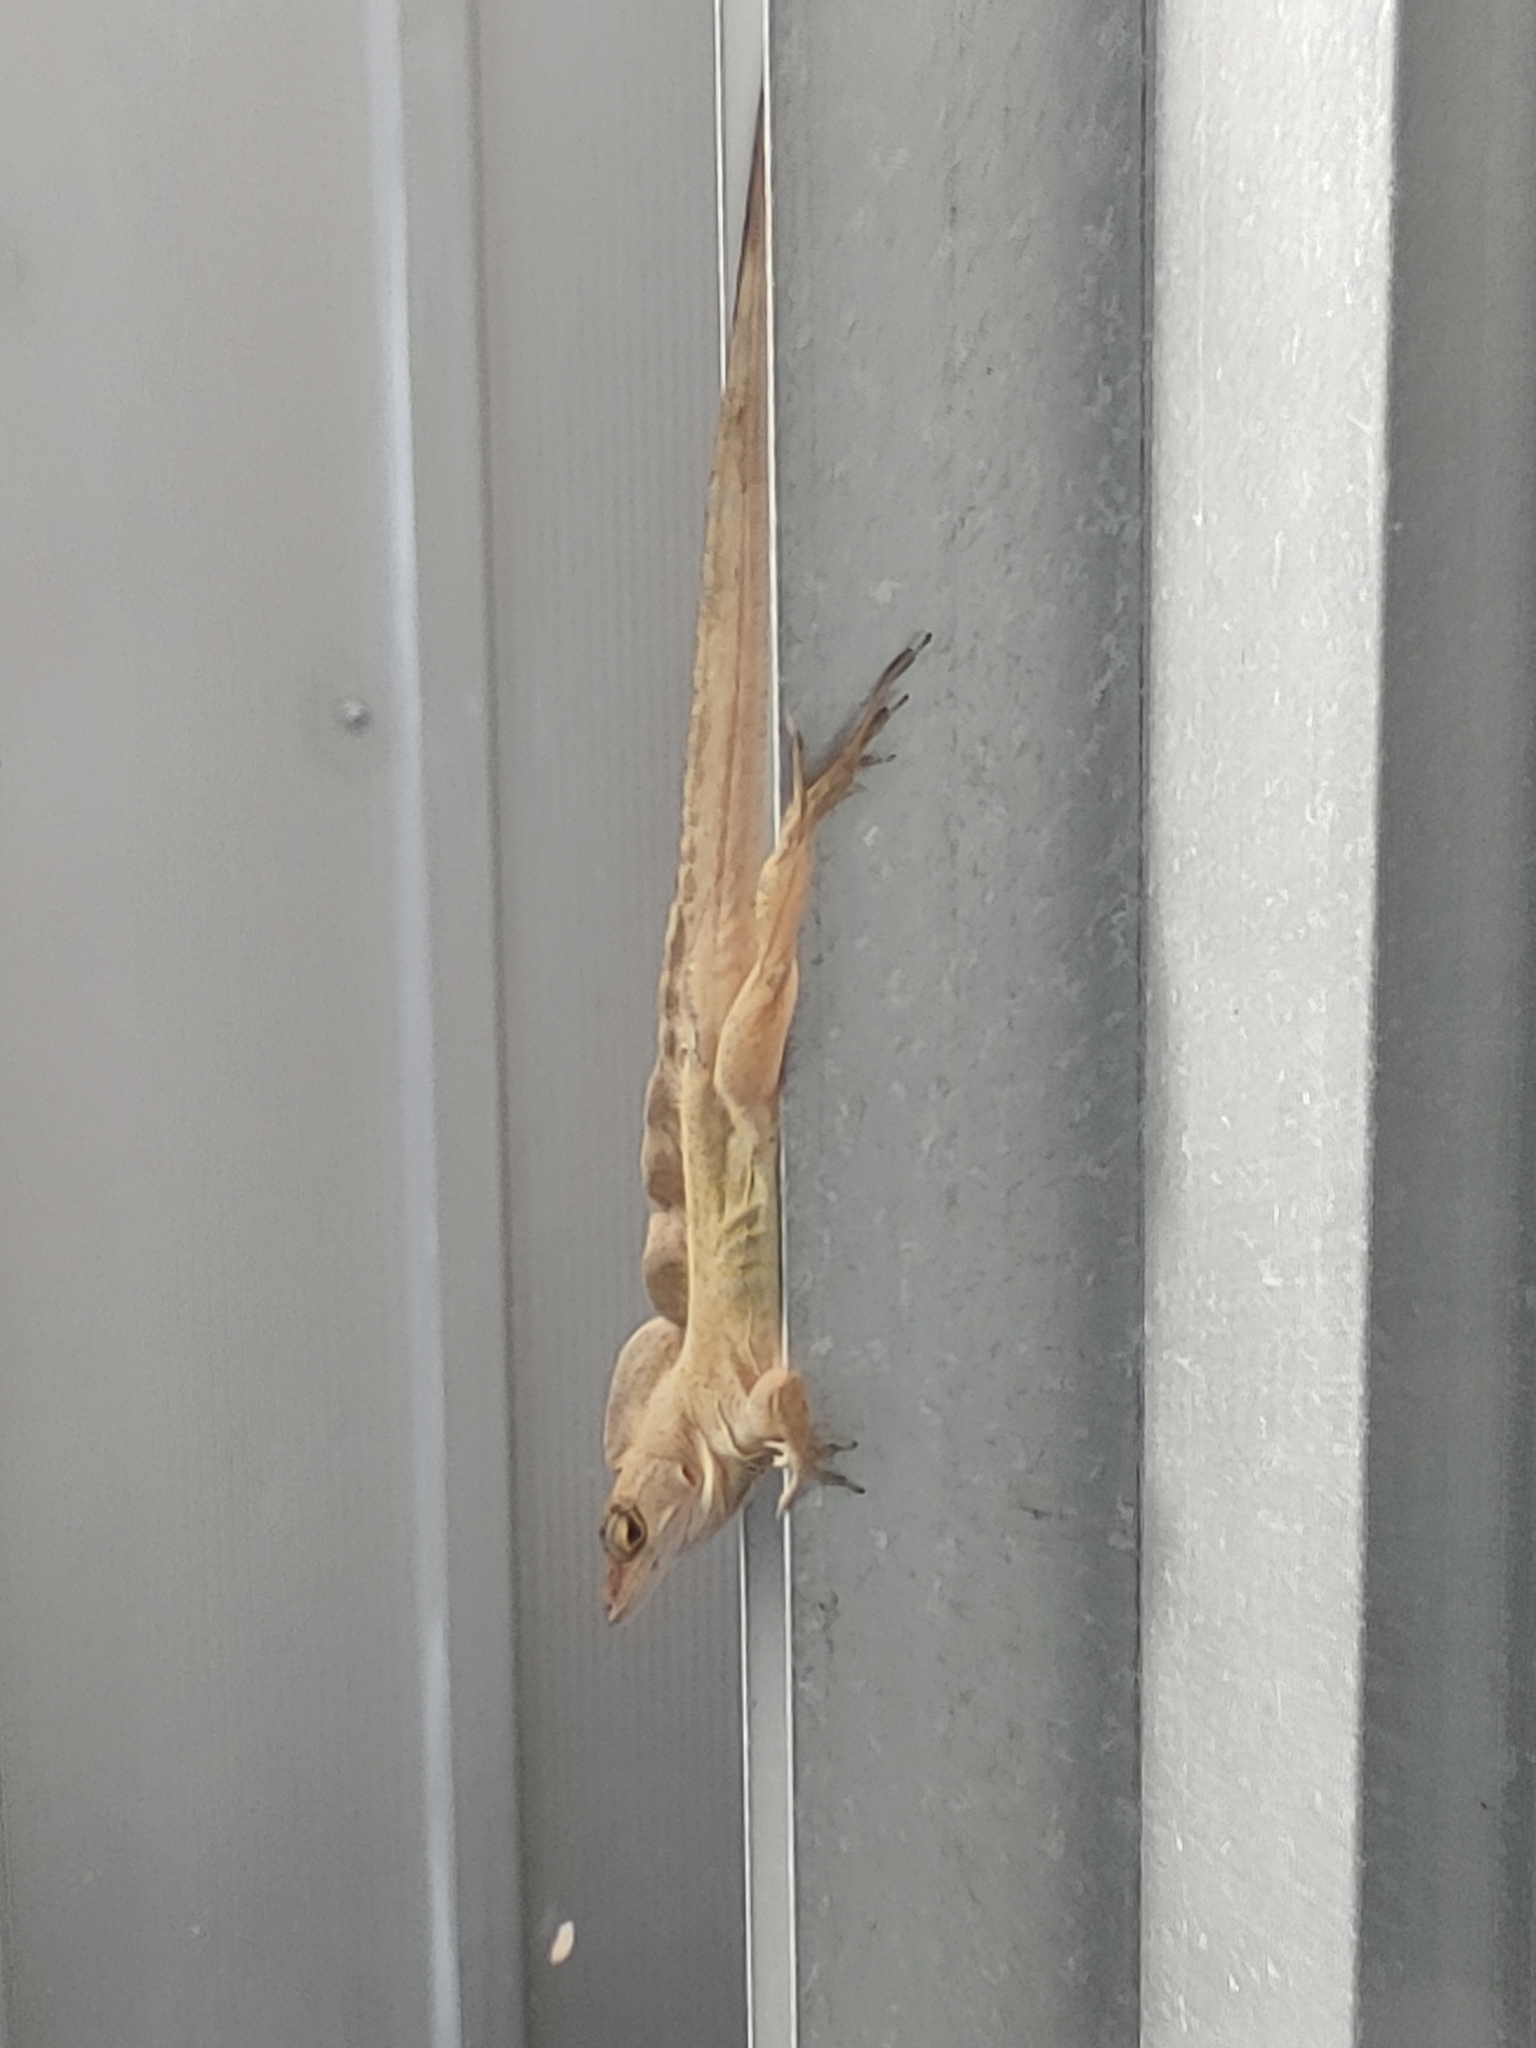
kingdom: Animalia
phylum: Chordata
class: Squamata
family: Dactyloidae
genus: Anolis
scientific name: Anolis sagrei
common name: Brown anole
